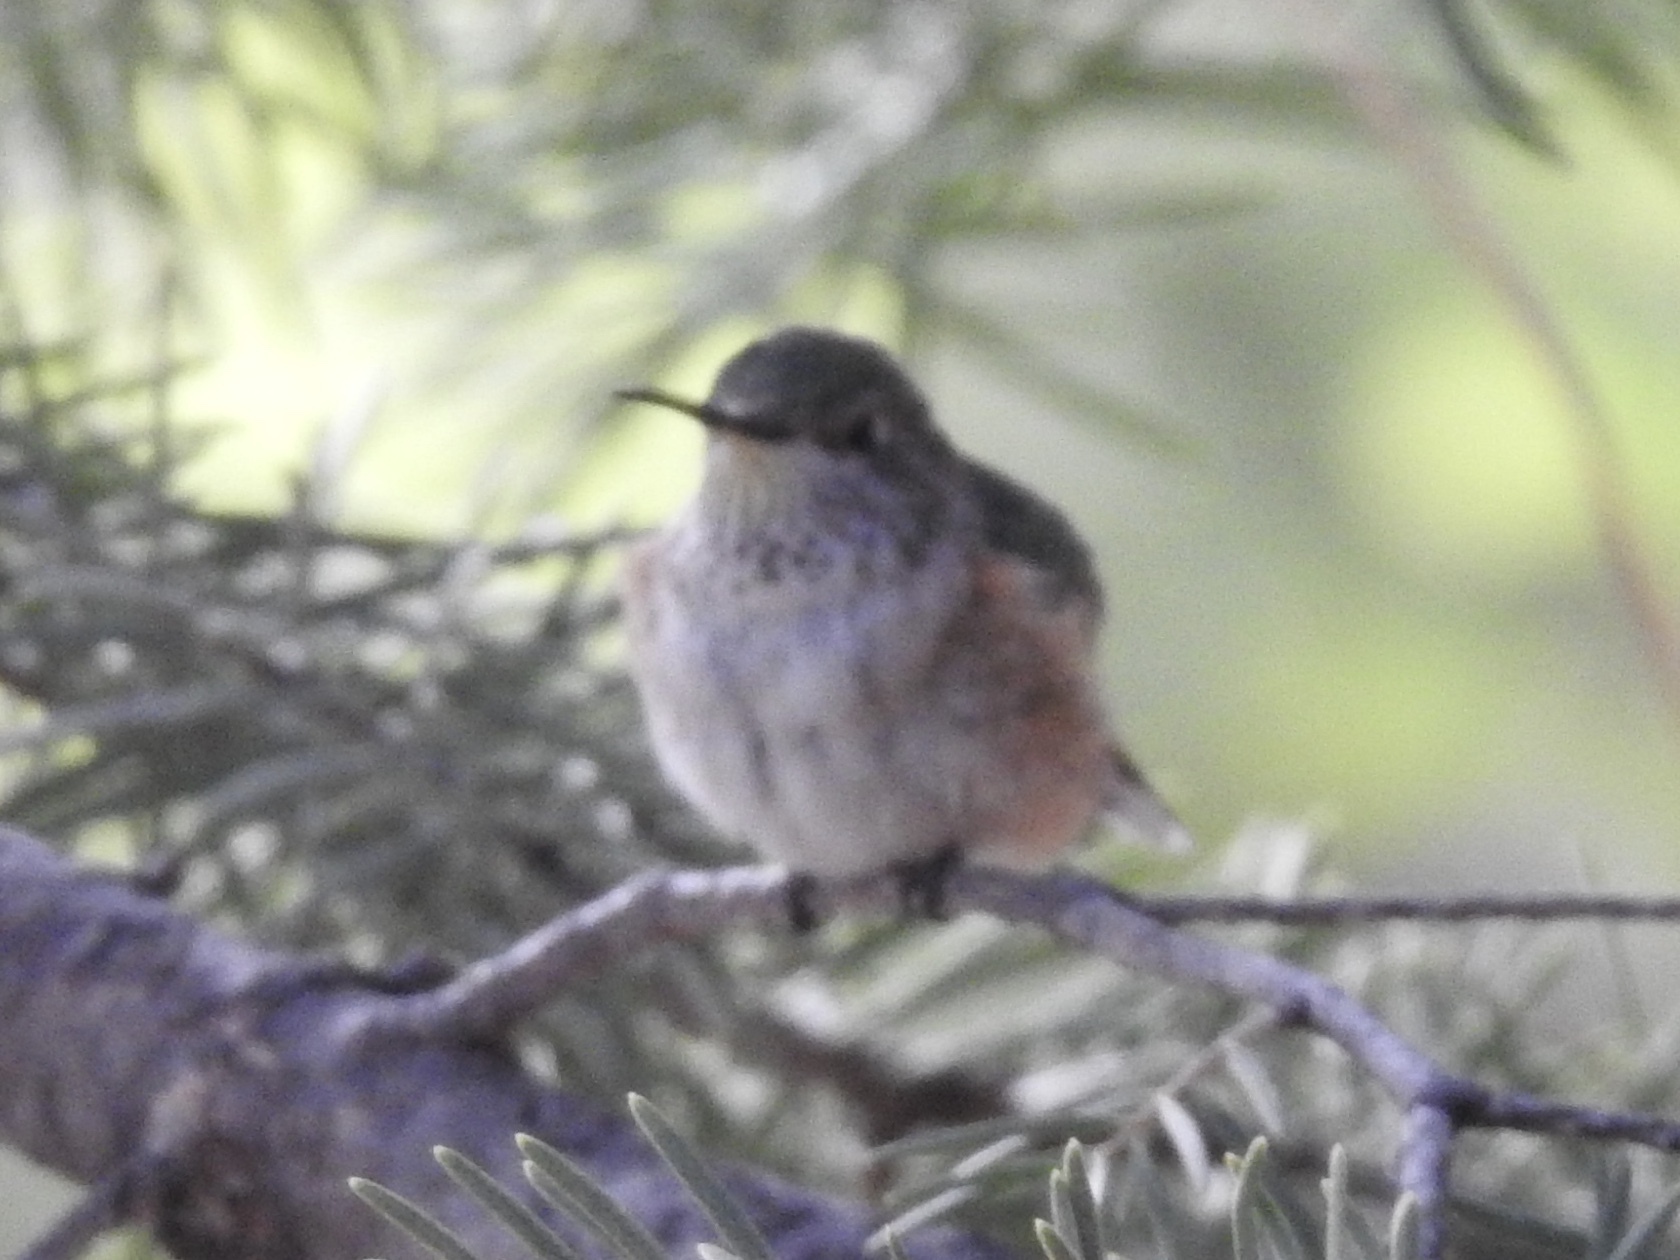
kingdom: Animalia
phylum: Chordata
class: Aves
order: Apodiformes
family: Trochilidae
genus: Selasphorus
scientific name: Selasphorus platycercus
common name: Broad-tailed hummingbird
